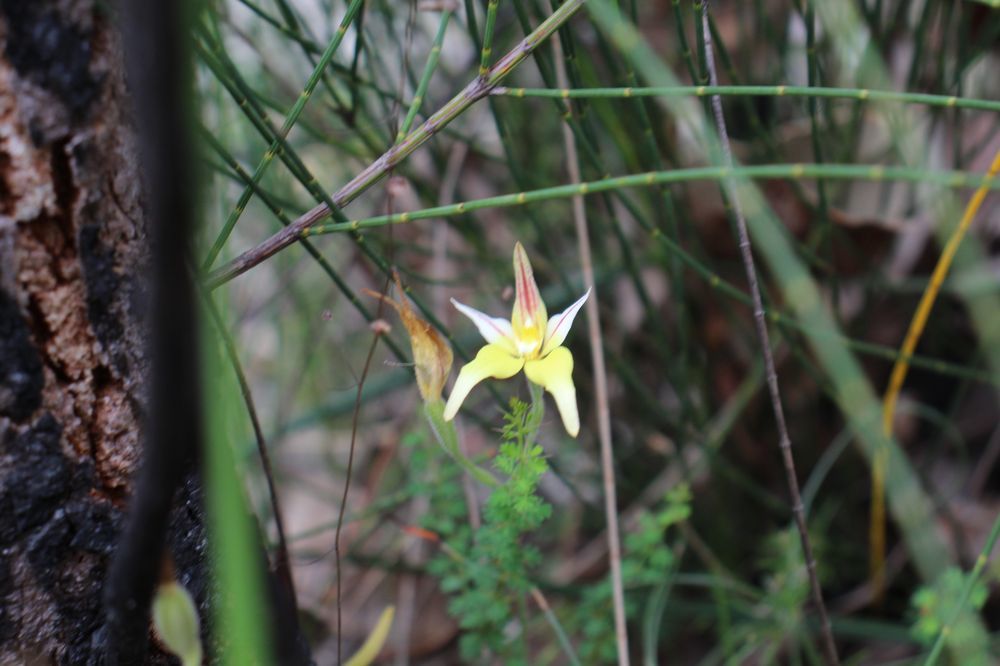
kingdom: Plantae
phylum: Tracheophyta
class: Liliopsida
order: Asparagales
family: Orchidaceae
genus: Caladenia
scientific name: Caladenia flava
